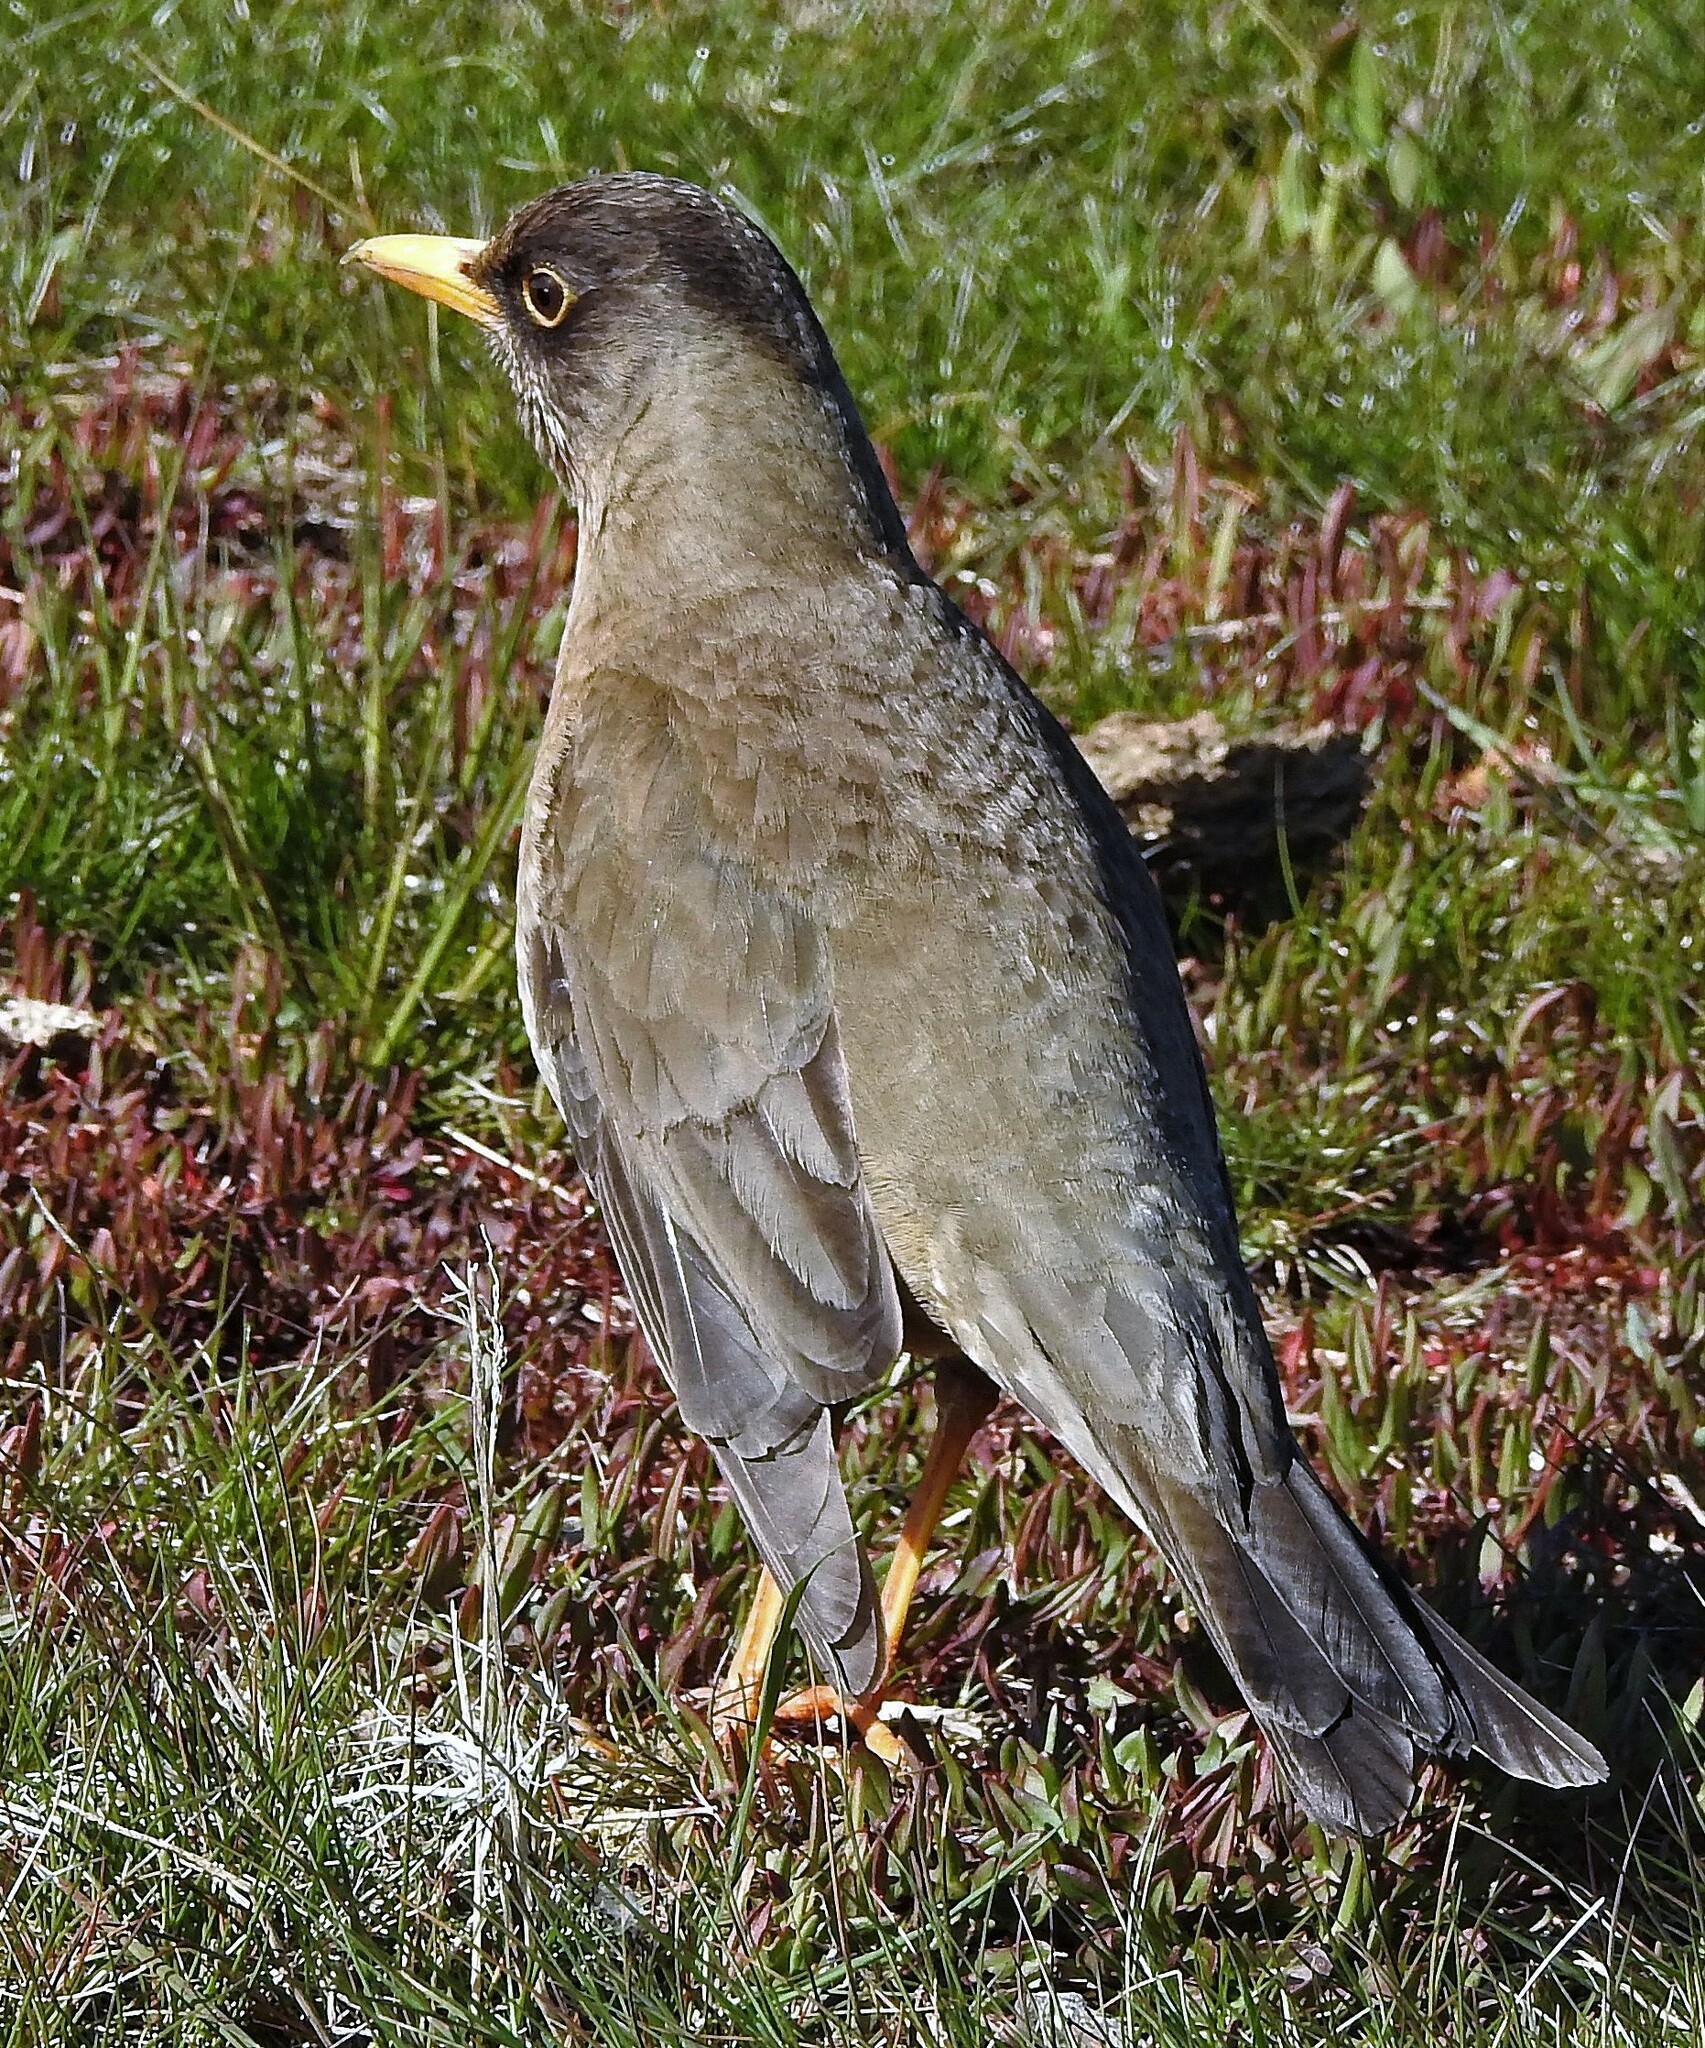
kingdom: Animalia
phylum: Chordata
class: Aves
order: Passeriformes
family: Turdidae
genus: Turdus
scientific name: Turdus falcklandii
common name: Austral thrush
